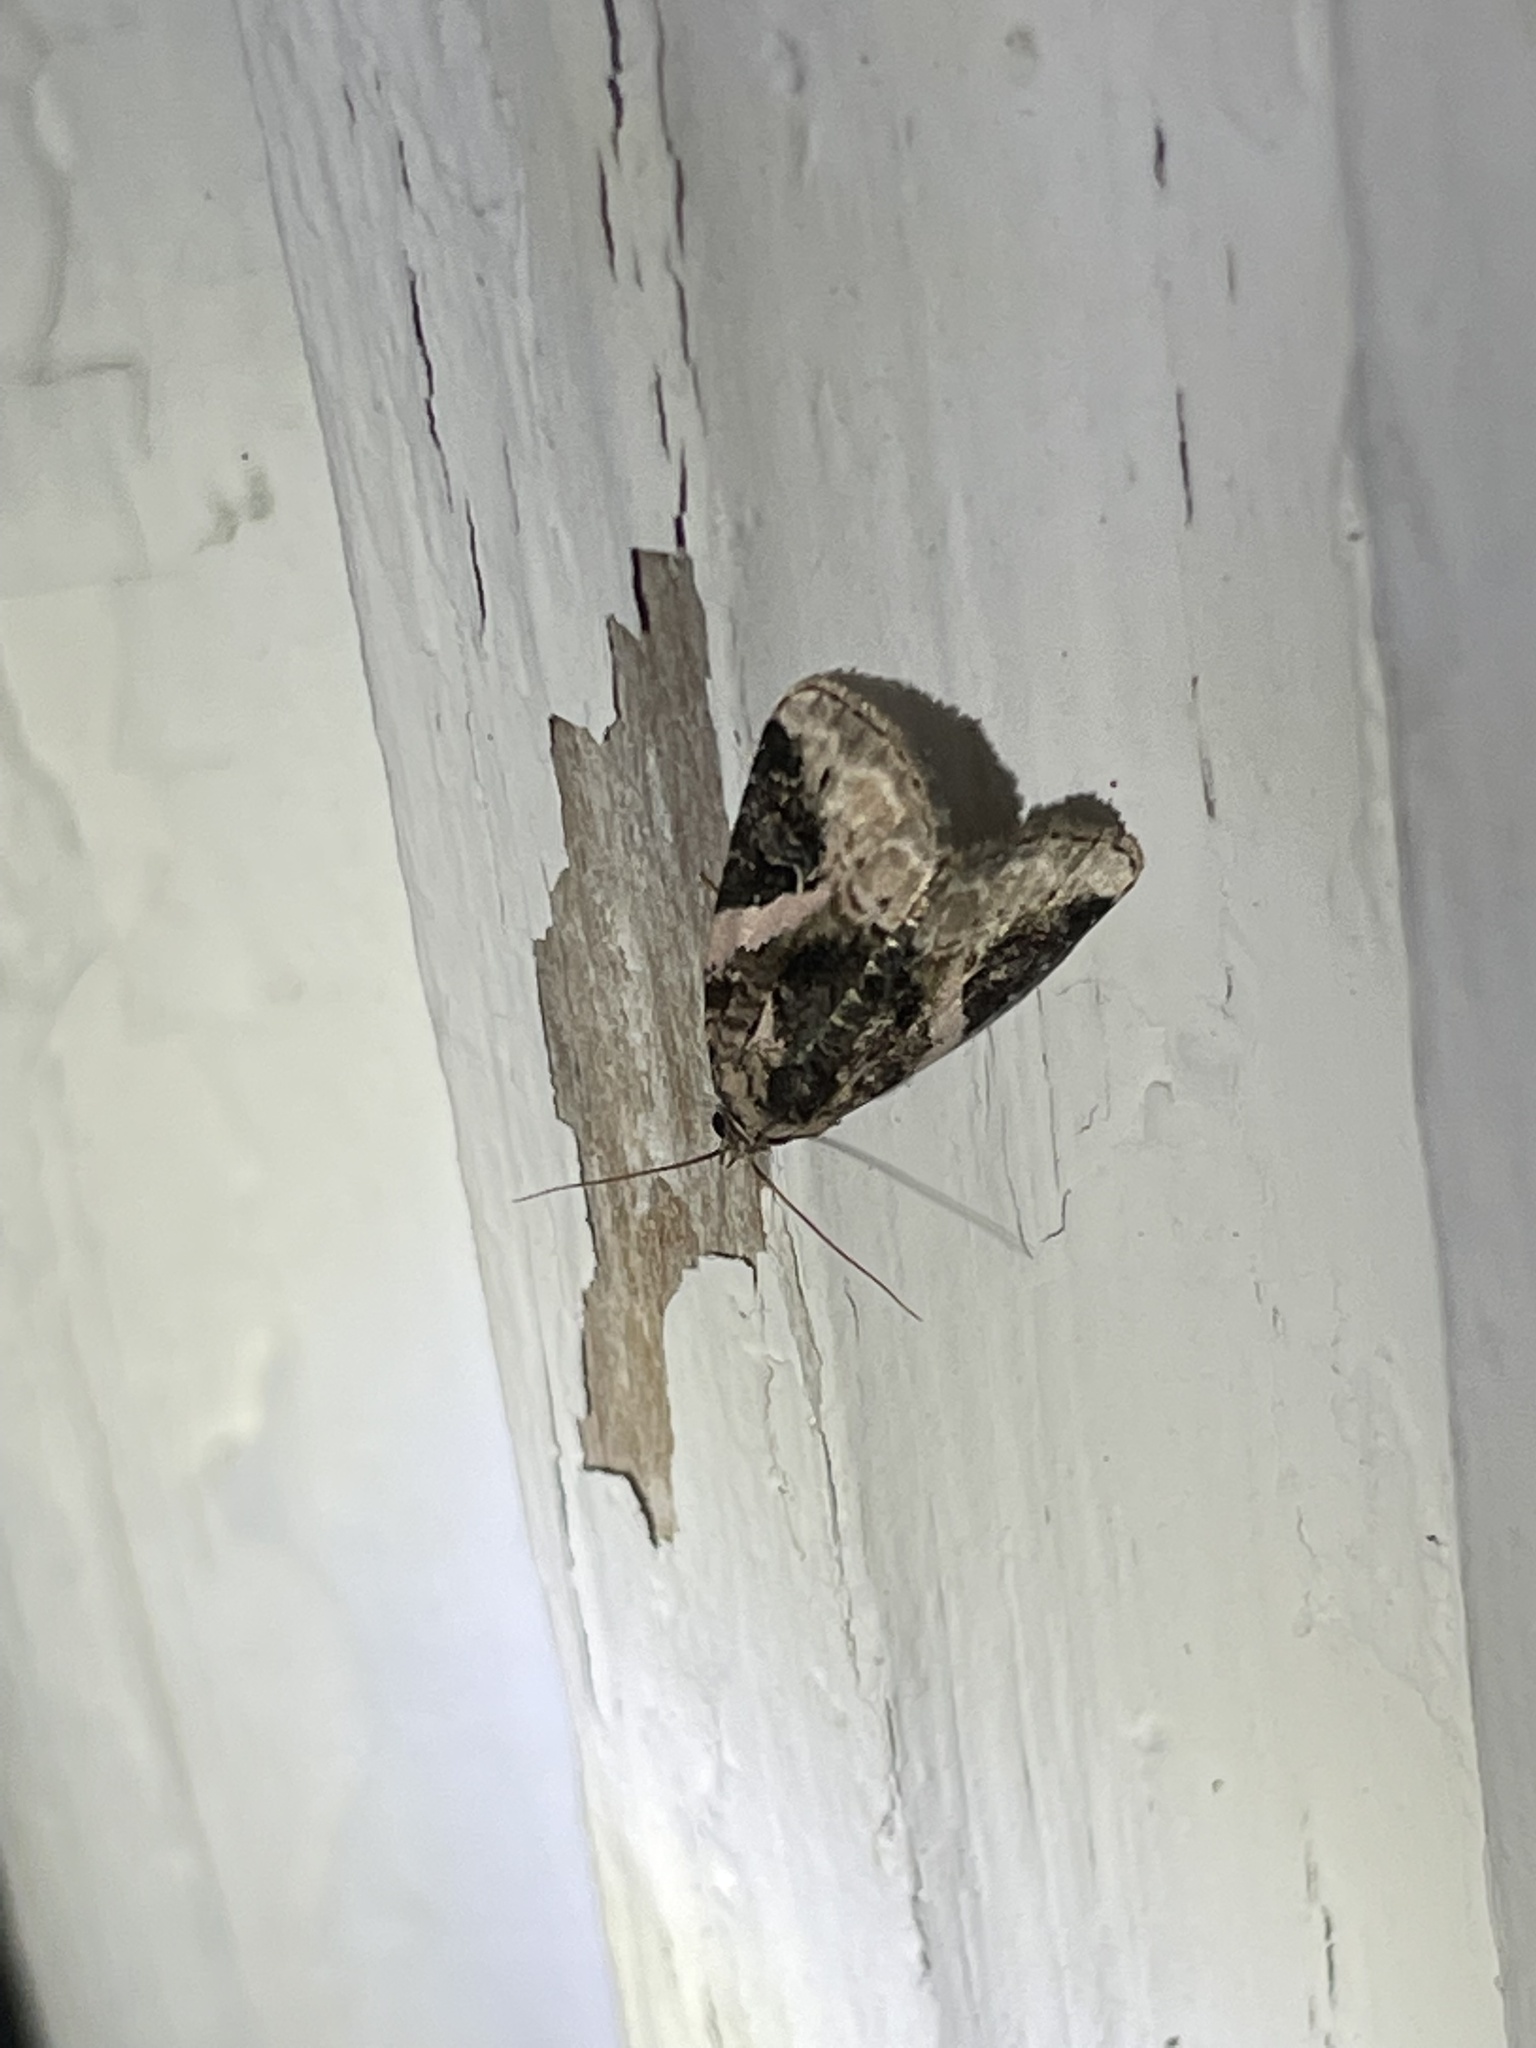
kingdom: Animalia
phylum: Arthropoda
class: Insecta
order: Lepidoptera
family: Noctuidae
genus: Pseudeustrotia
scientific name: Pseudeustrotia carneola
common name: Pink-barred lithacodia moth
